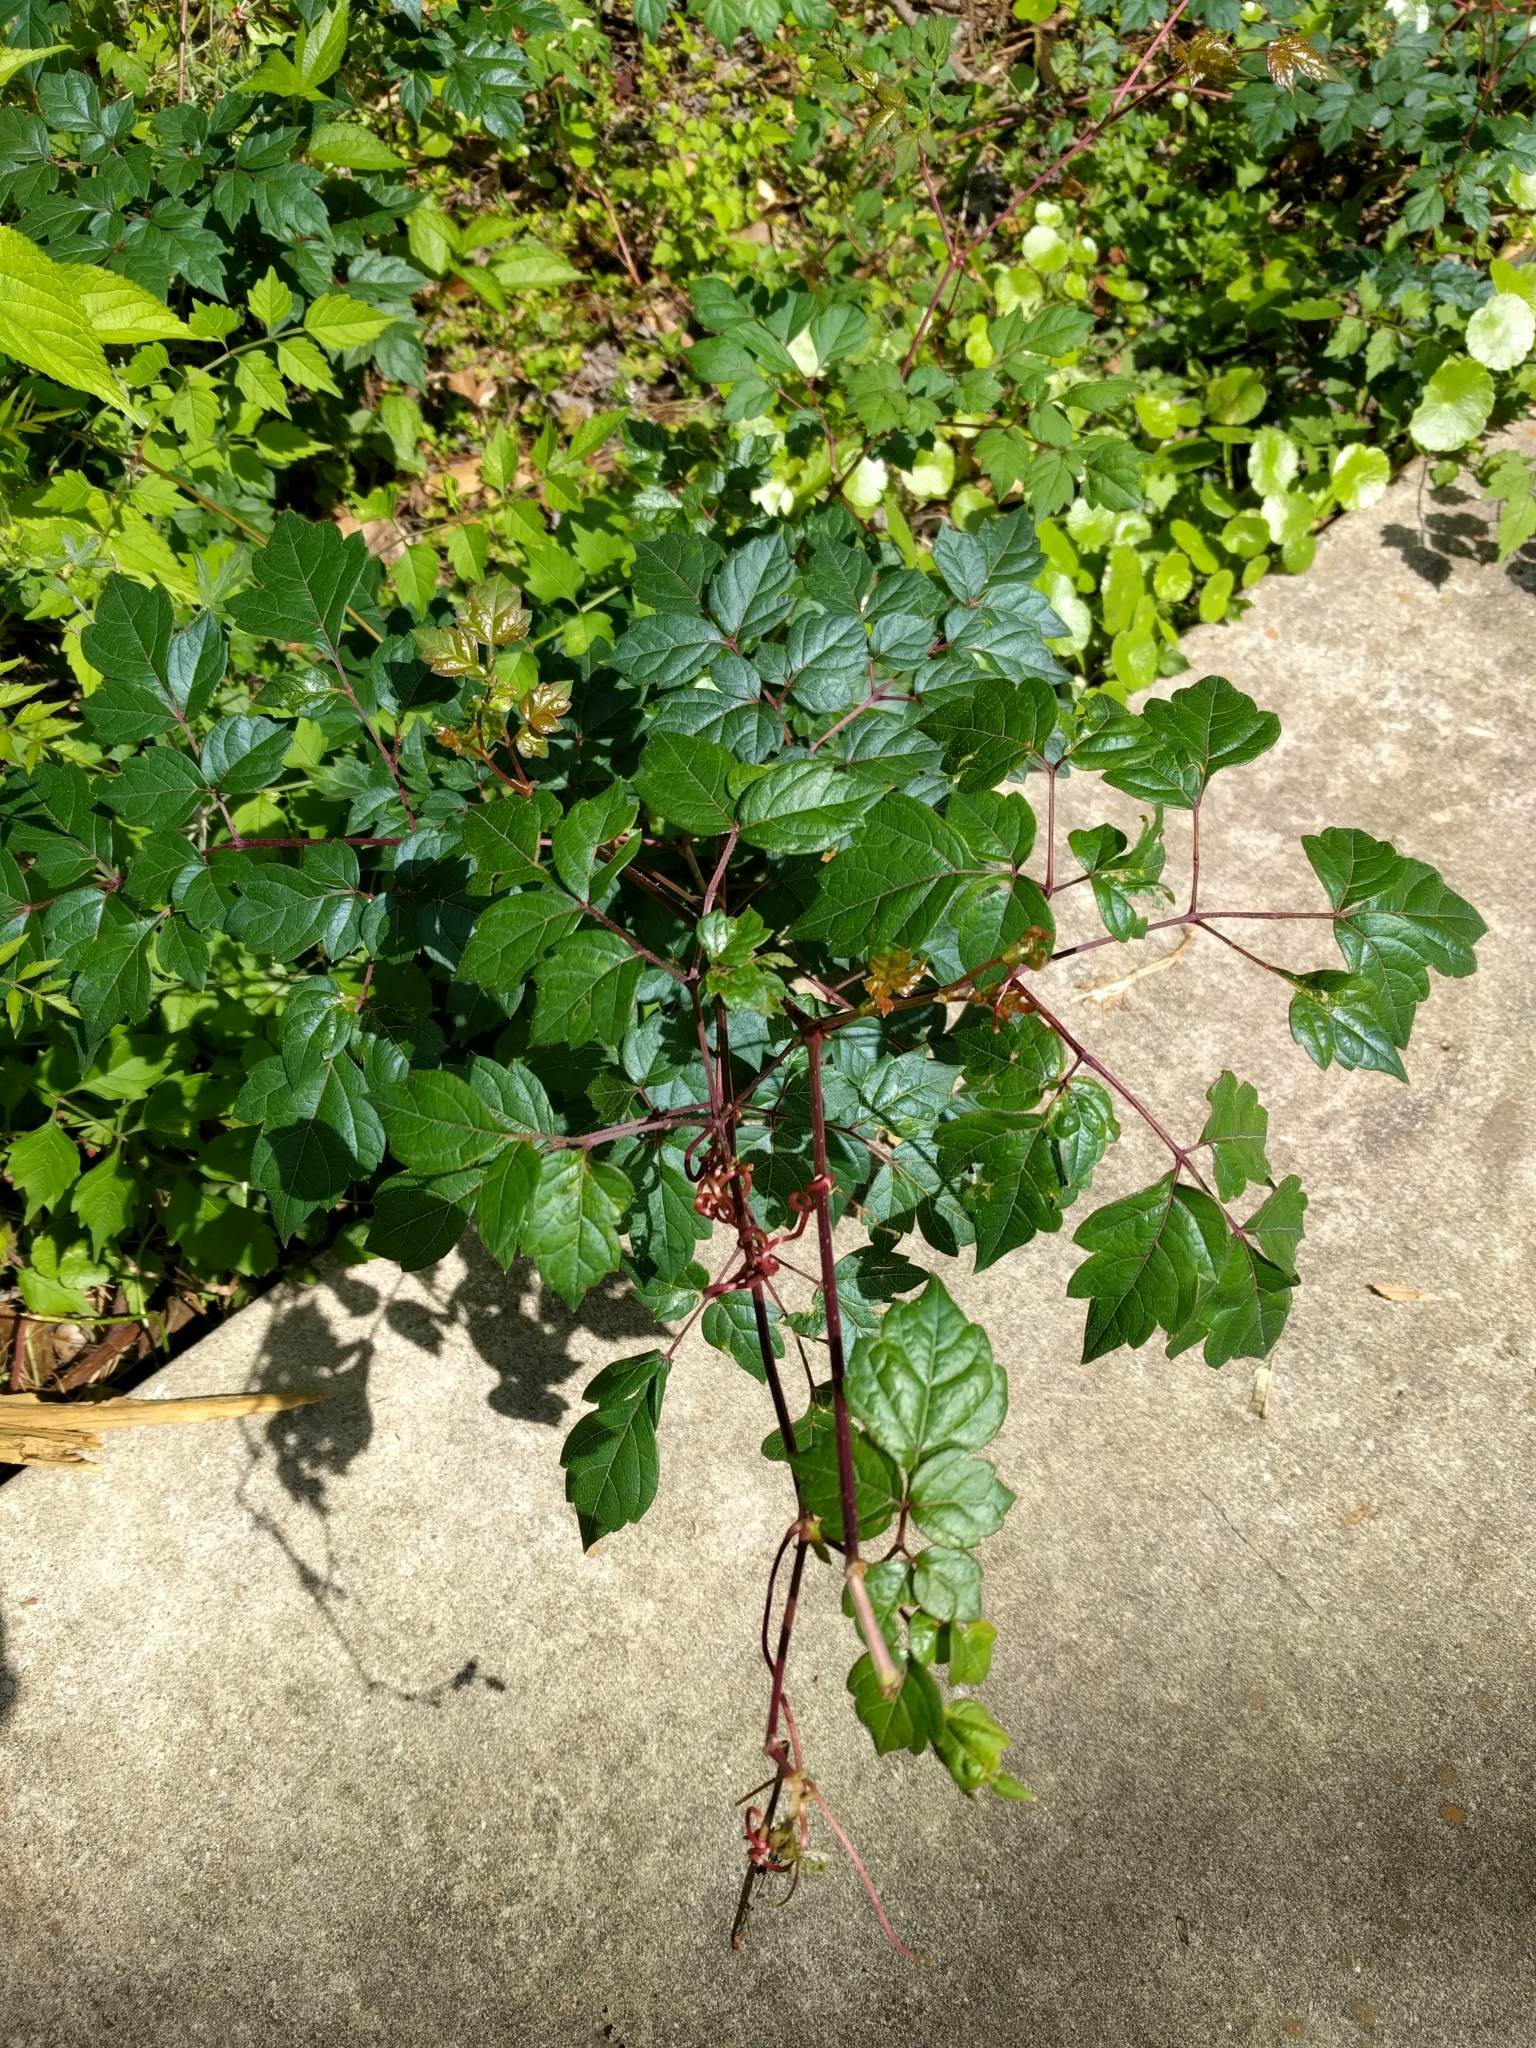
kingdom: Plantae
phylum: Tracheophyta
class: Magnoliopsida
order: Vitales
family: Vitaceae
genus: Nekemias
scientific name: Nekemias arborea
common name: Peppervine
